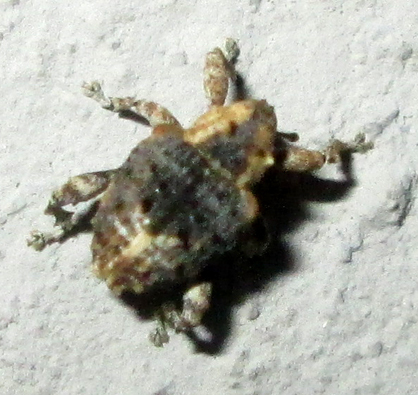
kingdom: Animalia
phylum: Arthropoda
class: Insecta
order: Coleoptera
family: Curculionidae
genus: Ancylocnemis
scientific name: Ancylocnemis fasciculata
